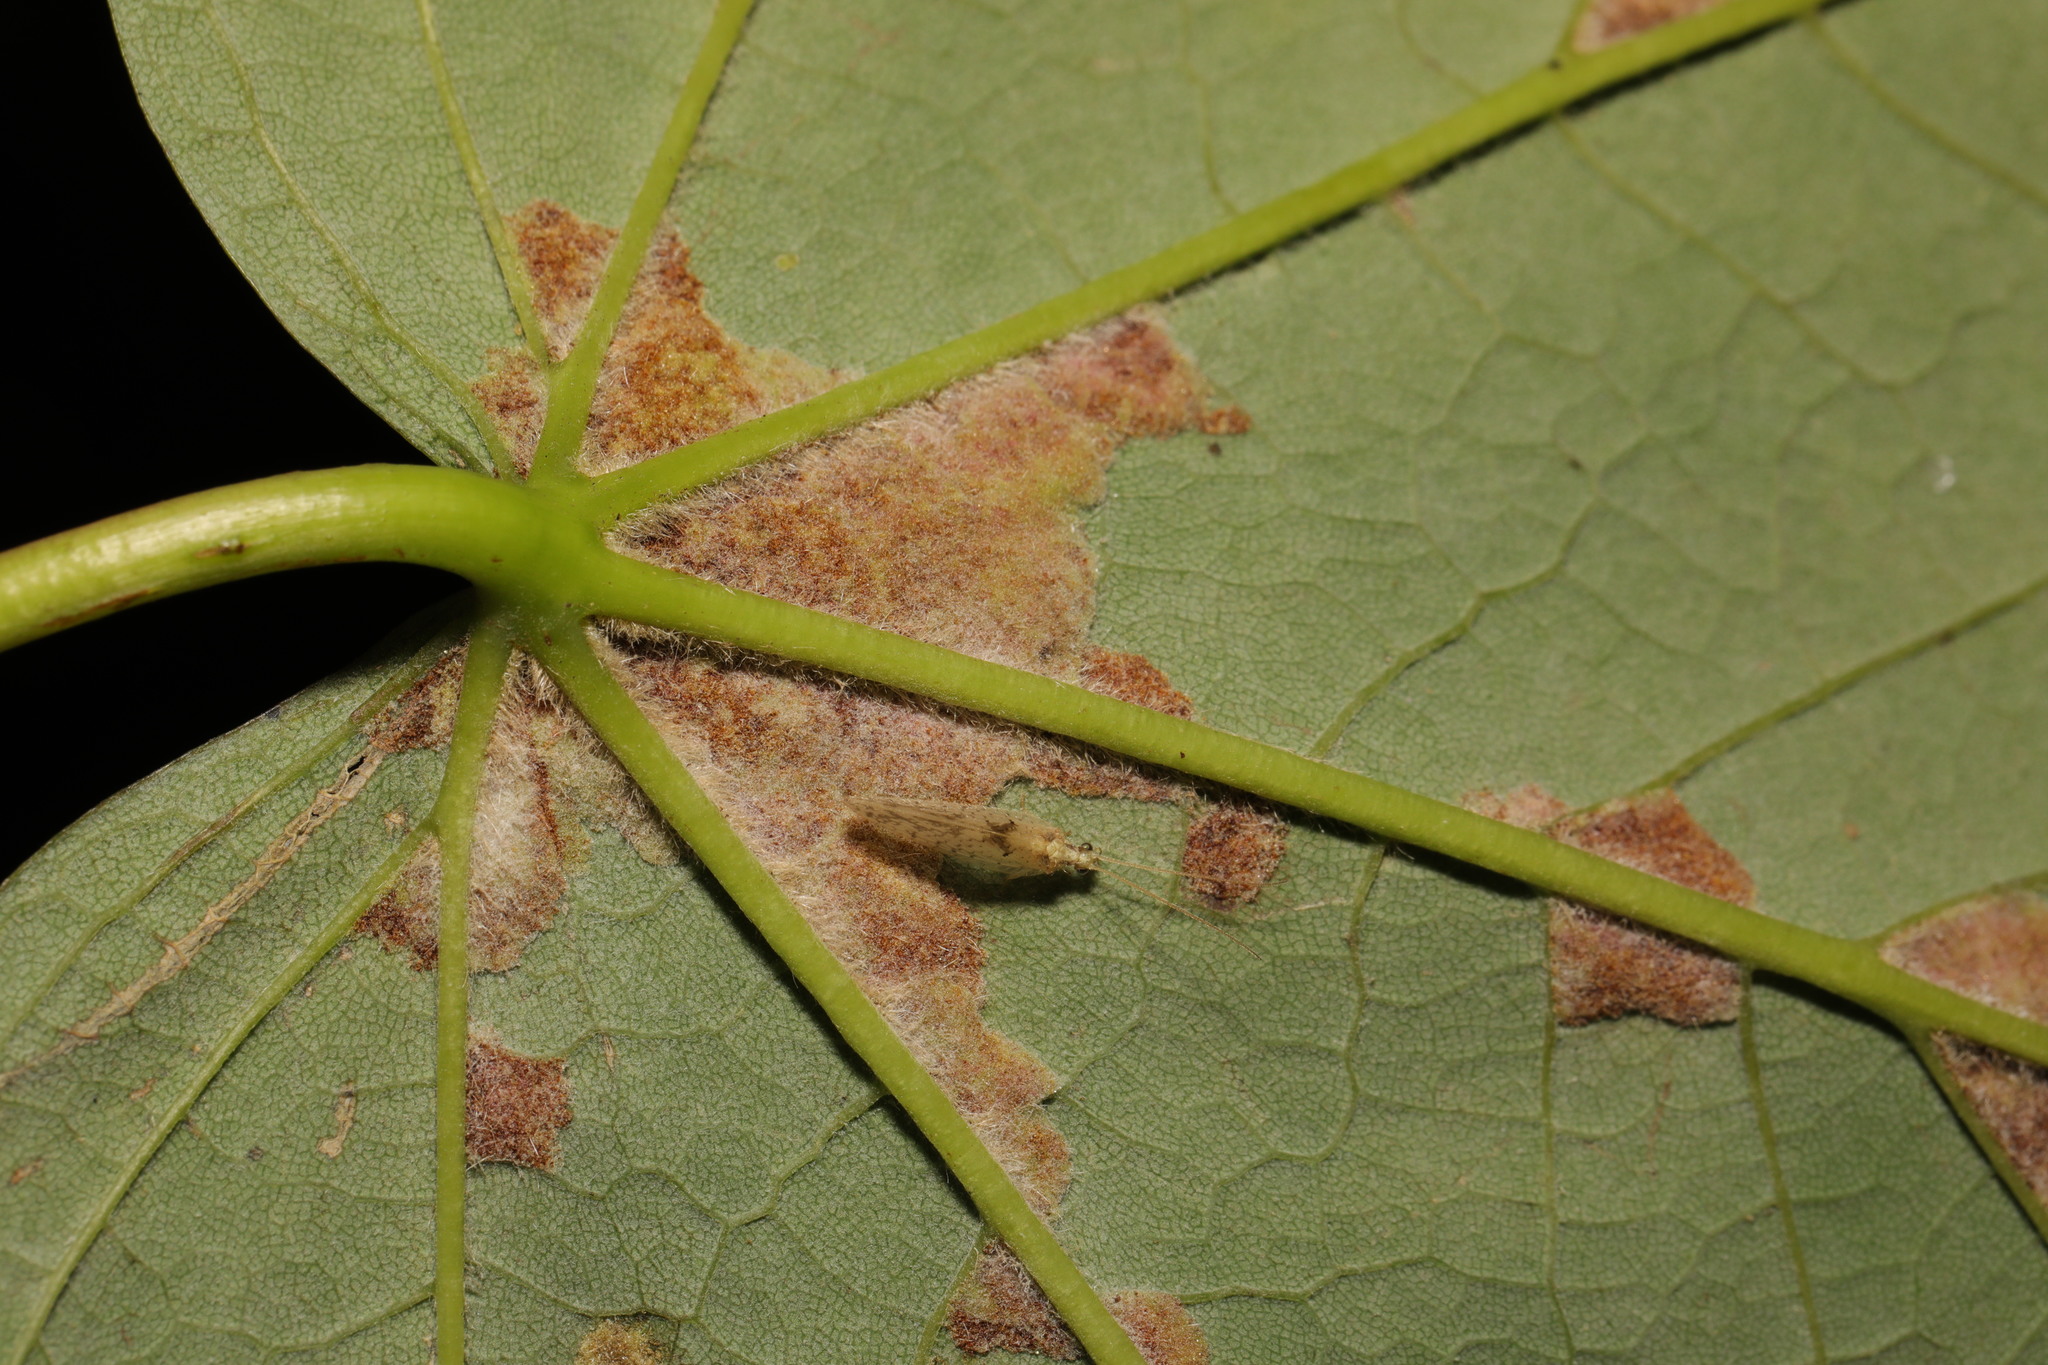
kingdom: Animalia
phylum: Arthropoda
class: Arachnida
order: Trombidiformes
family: Eriophyidae
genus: Aceria
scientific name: Aceria pseudoplatani
